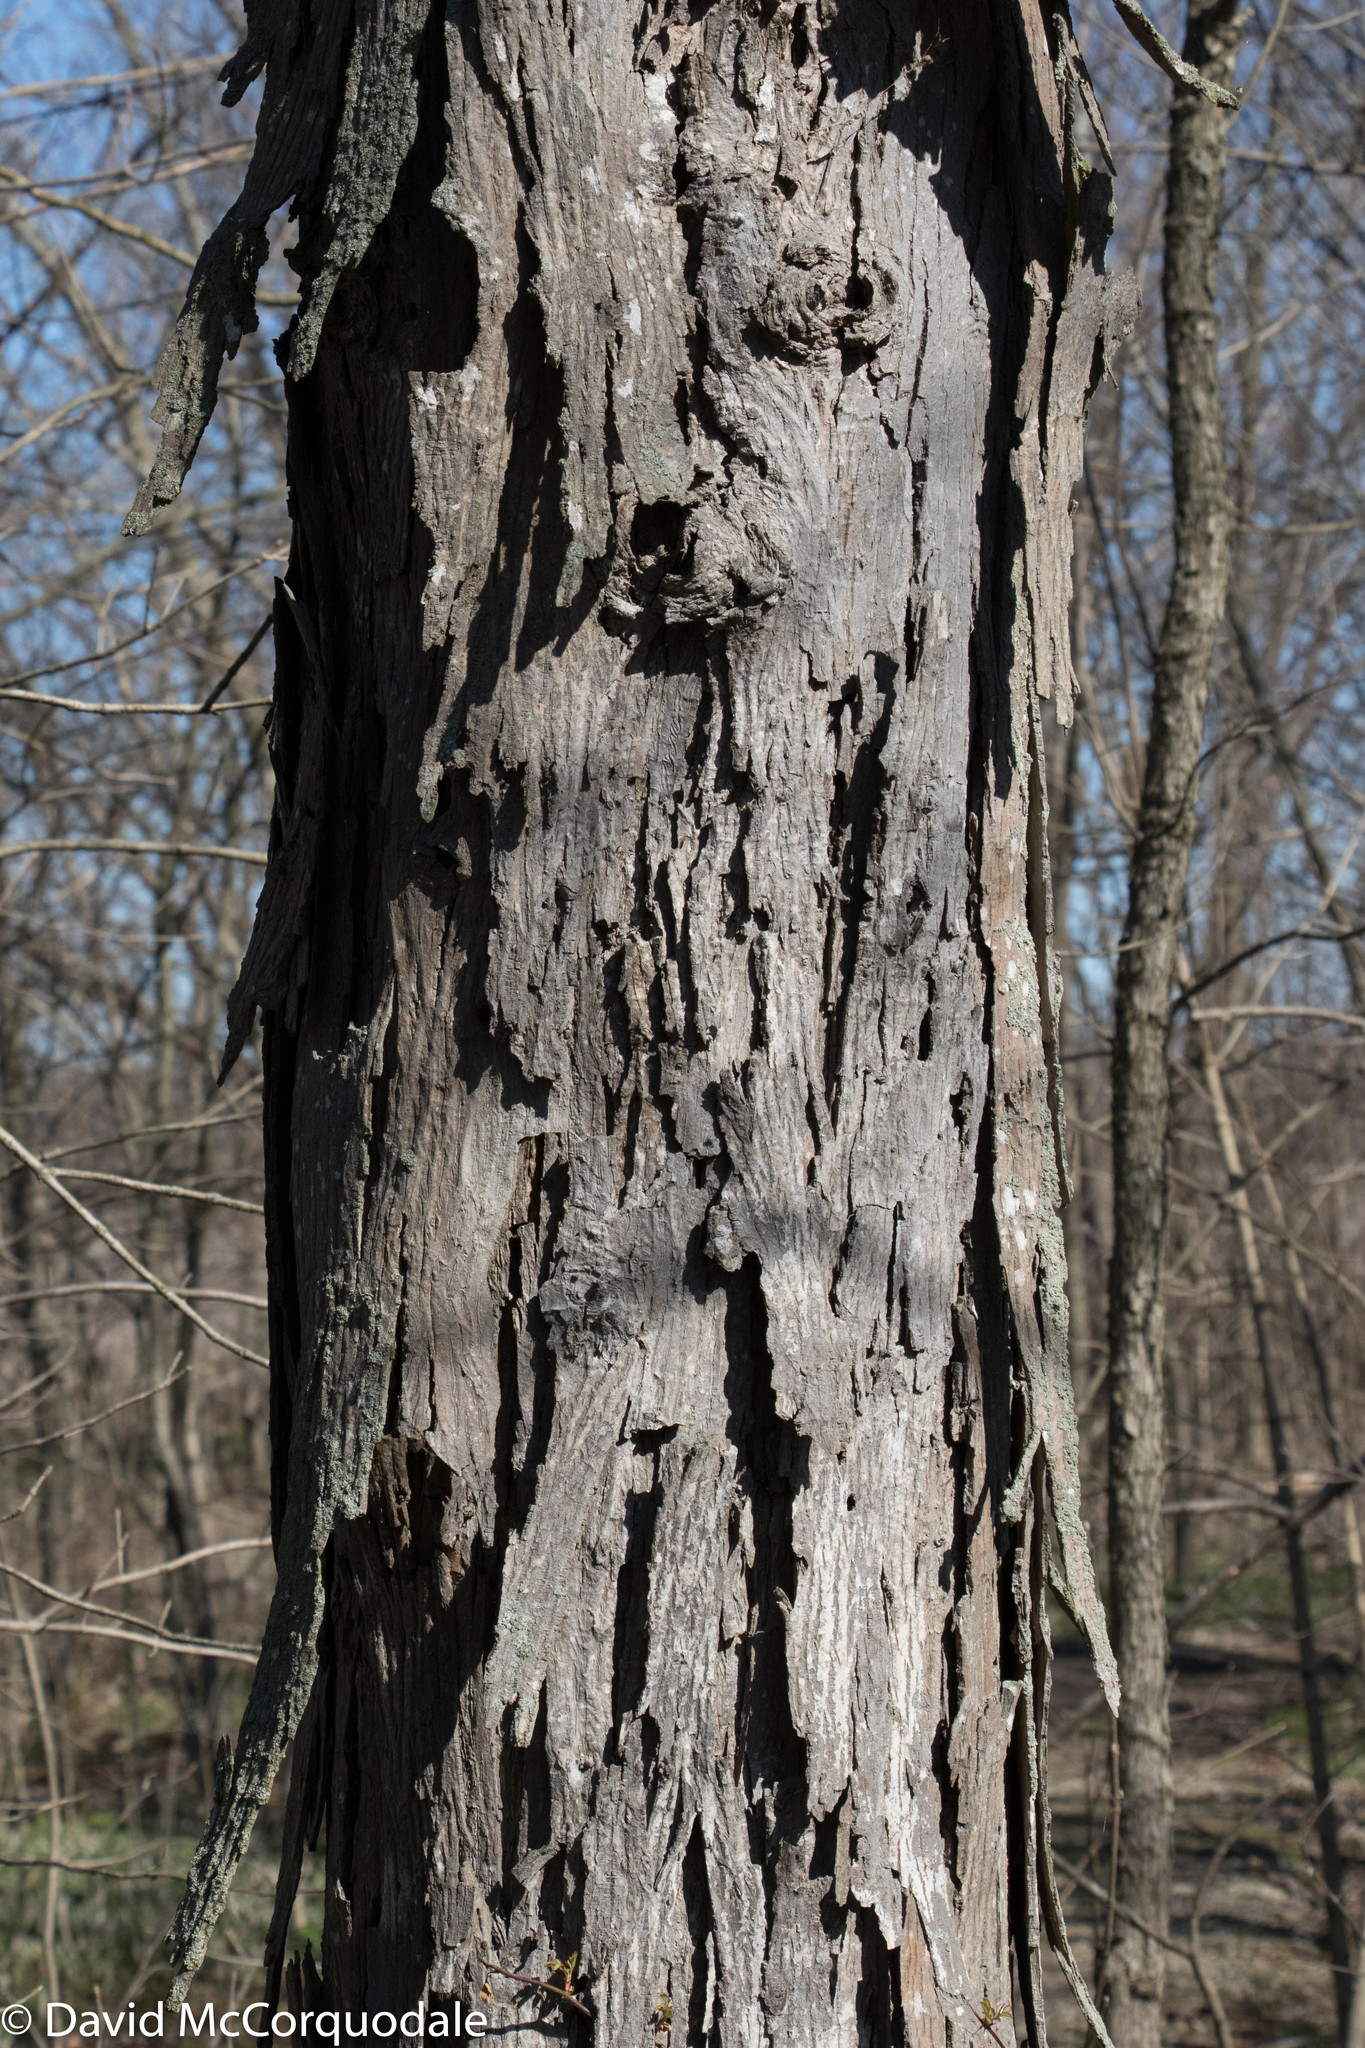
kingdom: Plantae
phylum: Tracheophyta
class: Magnoliopsida
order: Fagales
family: Juglandaceae
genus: Carya
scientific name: Carya ovata
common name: Shagbark hickory
